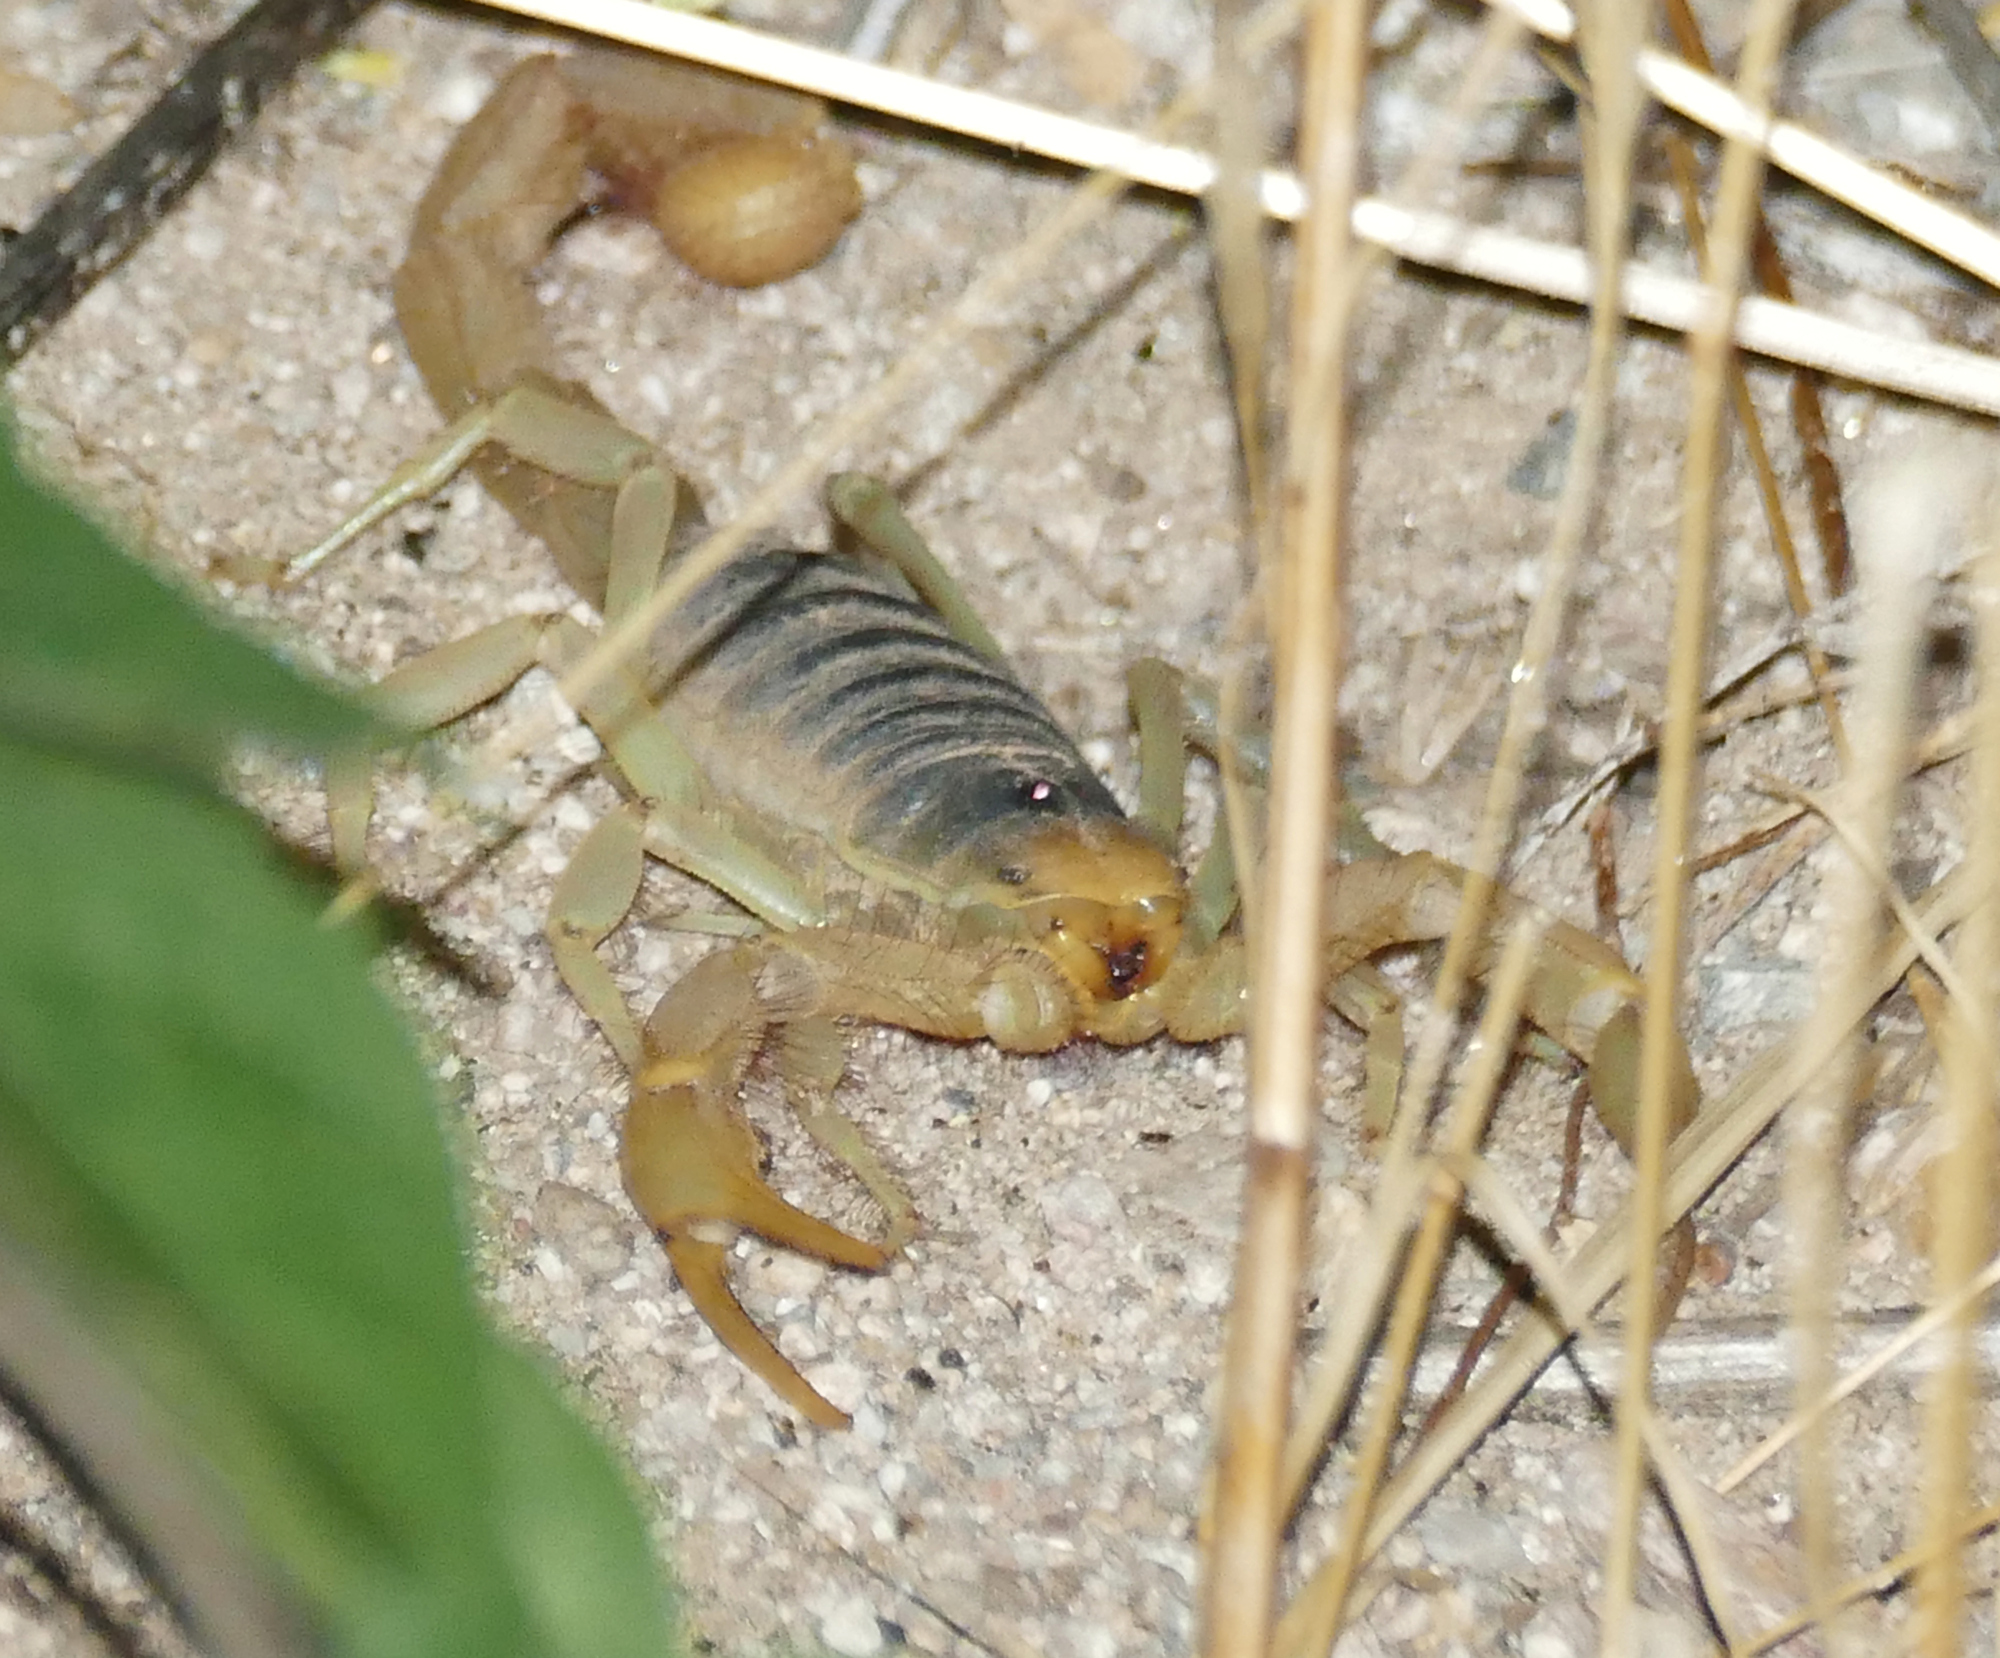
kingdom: Animalia
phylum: Arthropoda
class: Arachnida
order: Scorpiones
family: Hadruridae
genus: Hadrurus
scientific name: Hadrurus arizonensis
